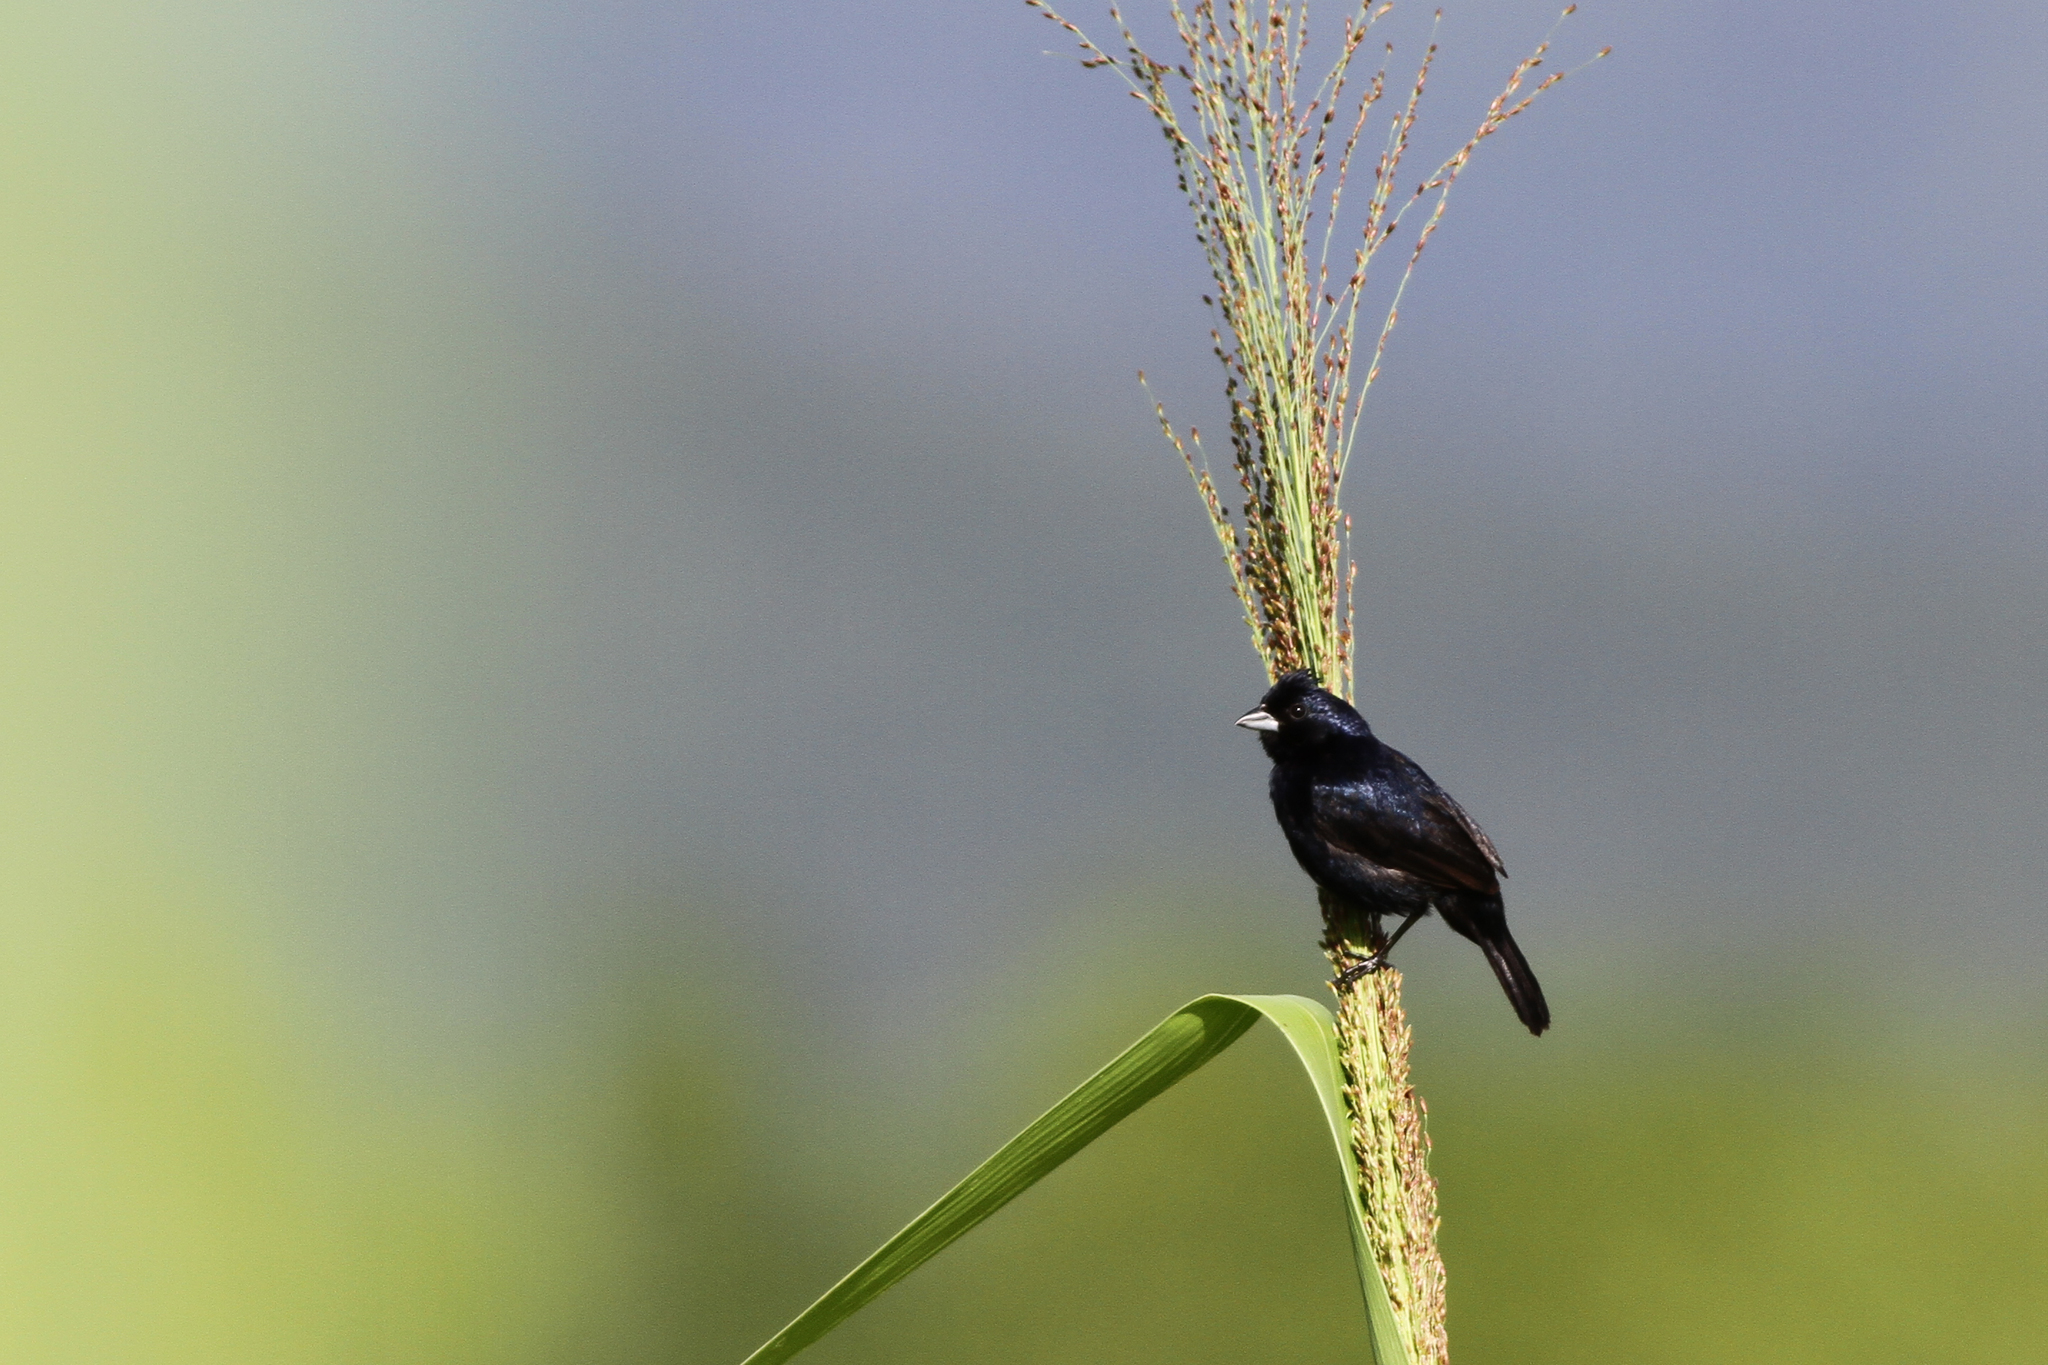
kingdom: Animalia
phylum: Chordata
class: Aves
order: Passeriformes
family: Thraupidae
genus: Volatinia
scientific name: Volatinia jacarina
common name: Blue-black grassquit
